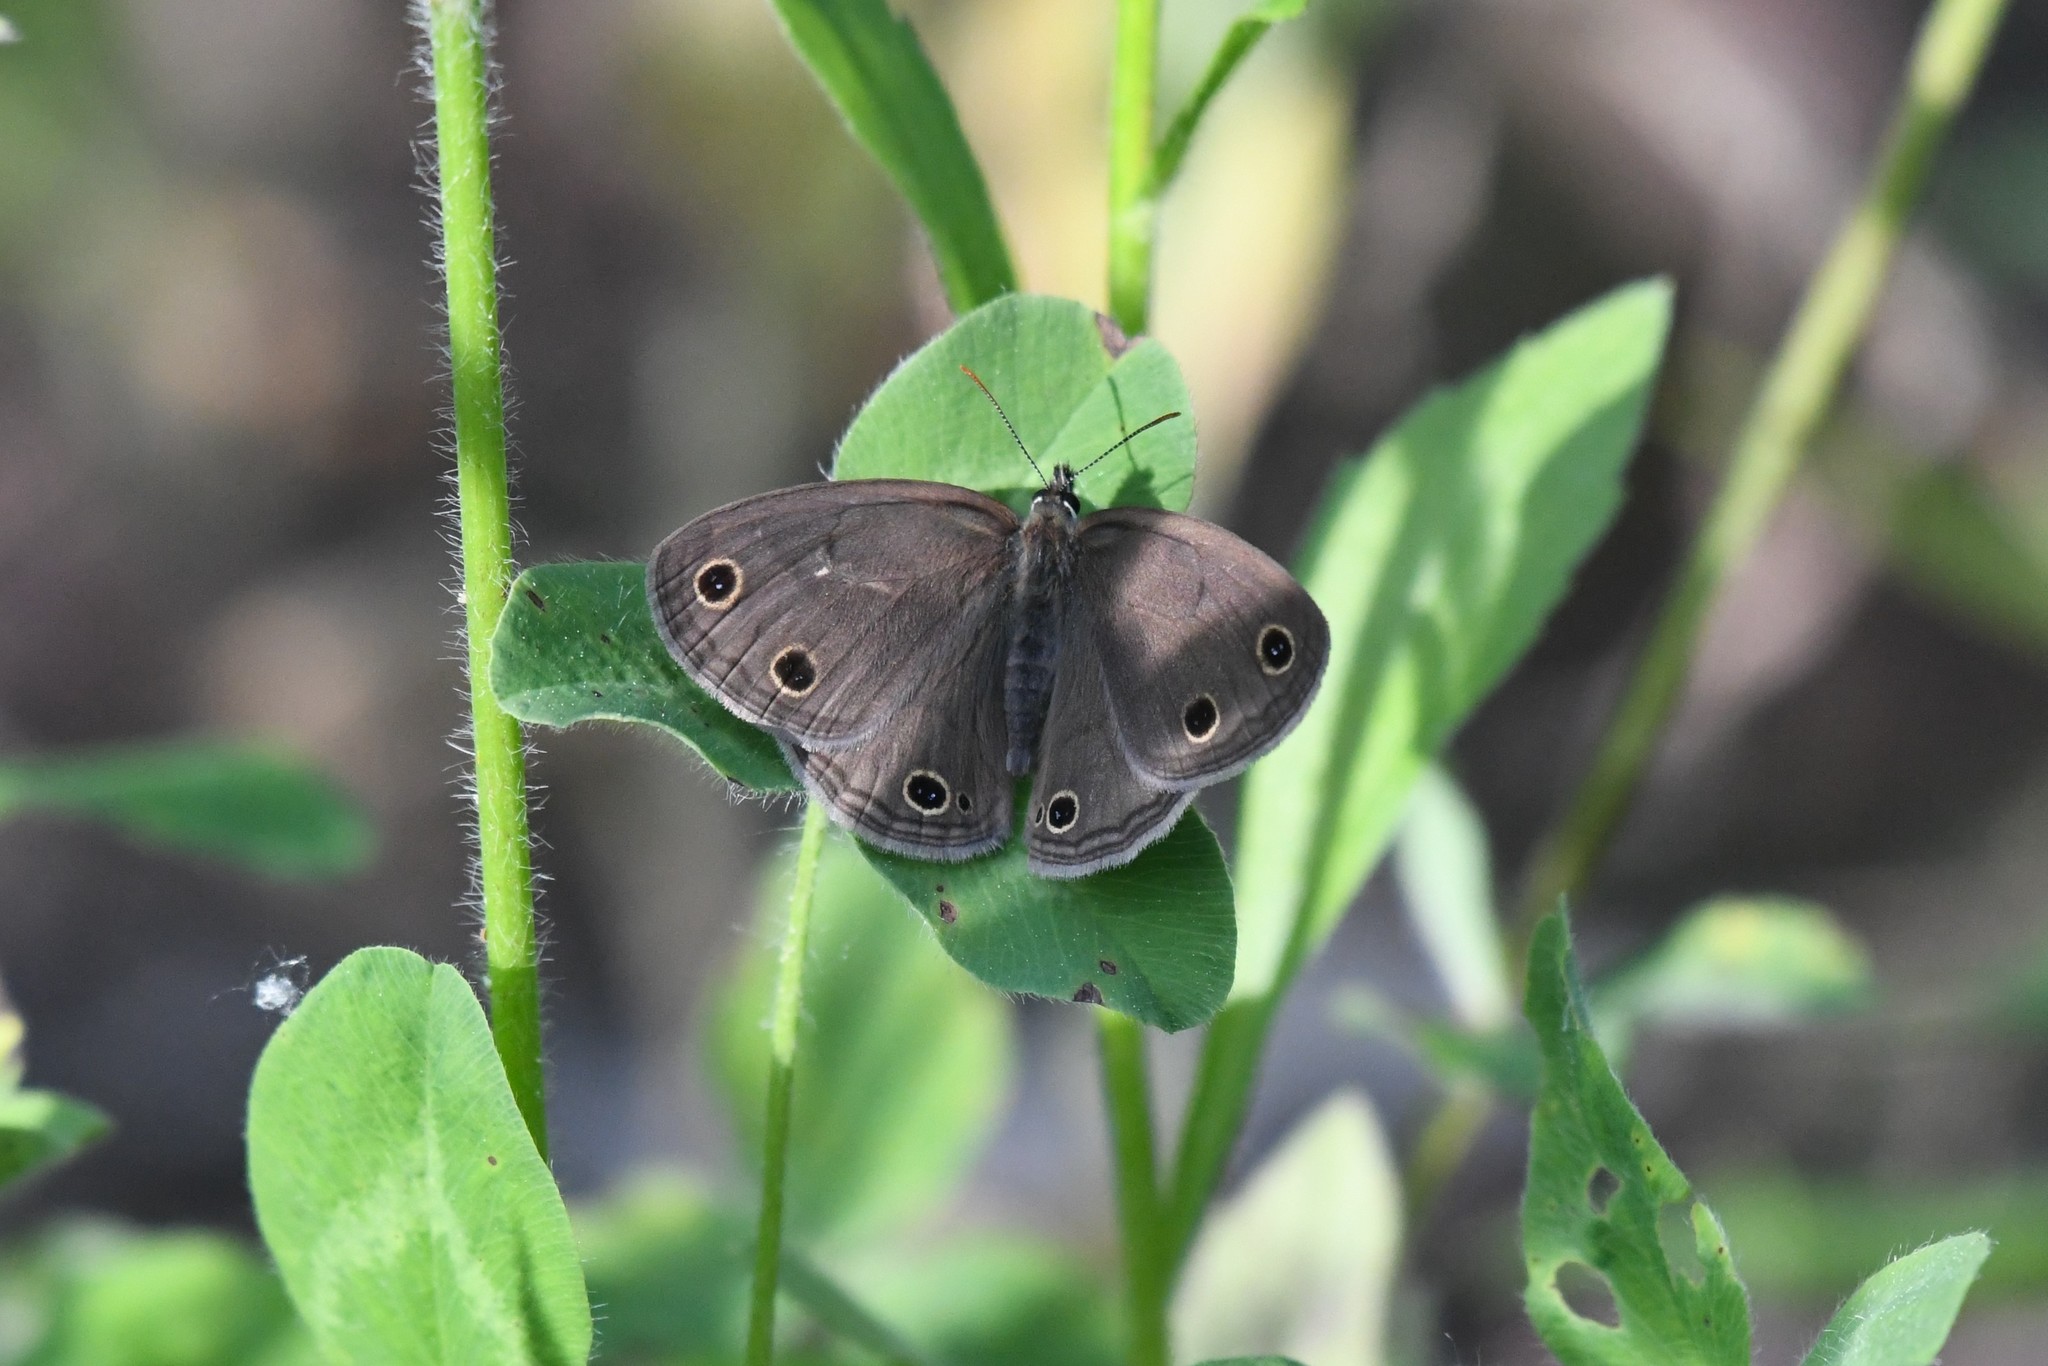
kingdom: Animalia
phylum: Arthropoda
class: Insecta
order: Lepidoptera
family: Nymphalidae
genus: Euptychia
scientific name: Euptychia cymela
